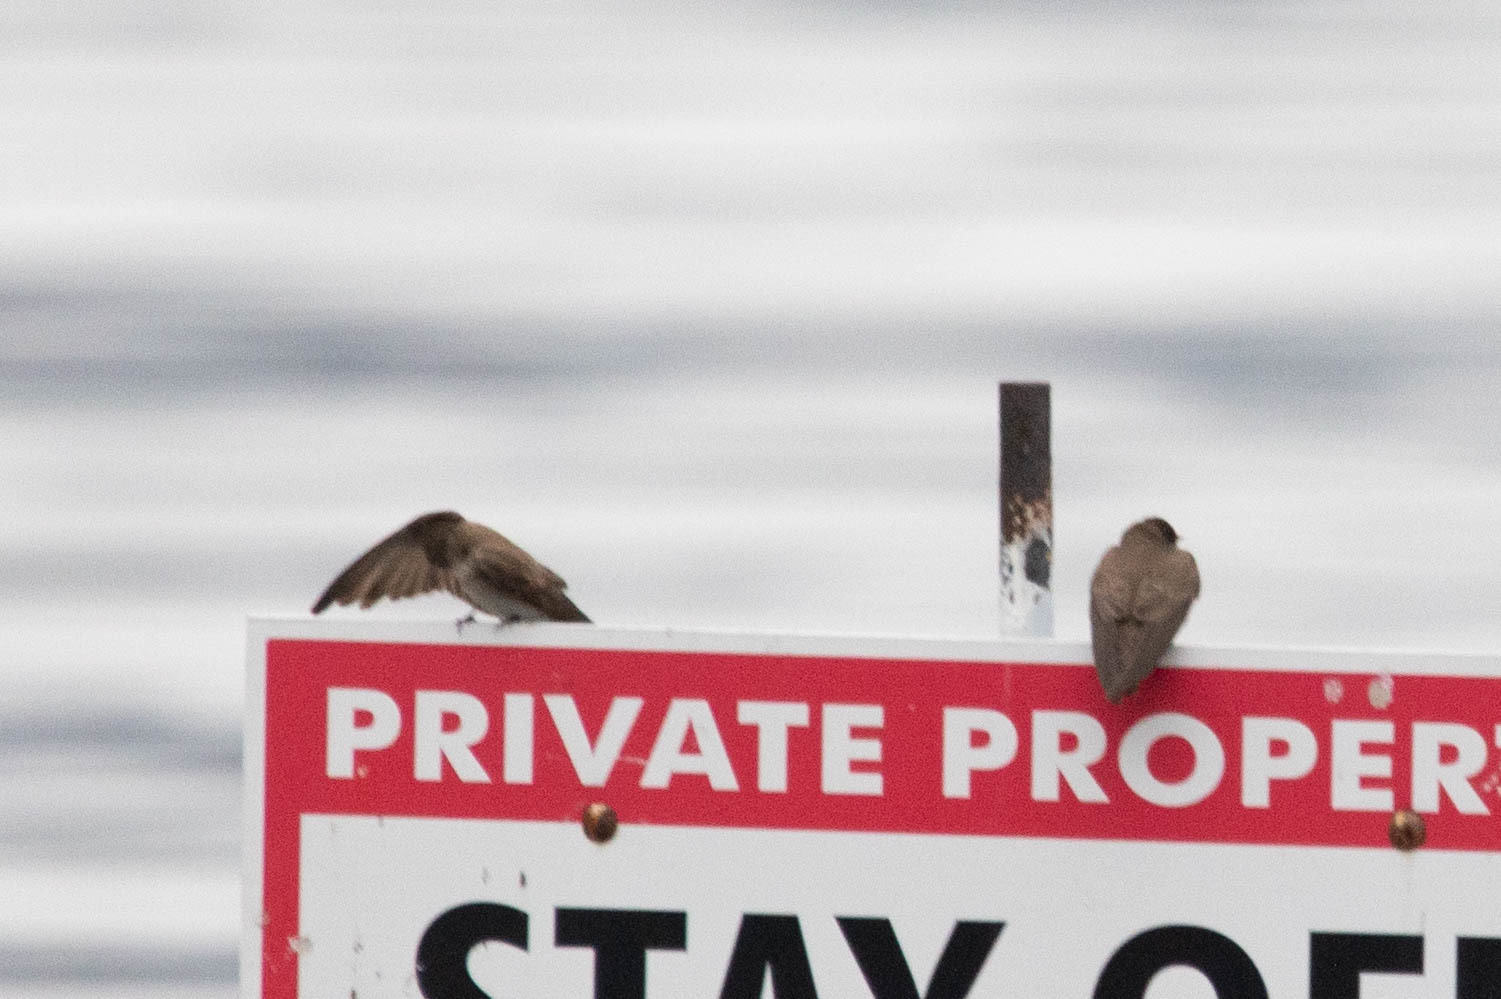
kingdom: Animalia
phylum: Chordata
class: Aves
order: Passeriformes
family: Hirundinidae
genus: Stelgidopteryx
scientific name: Stelgidopteryx serripennis
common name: Northern rough-winged swallow
